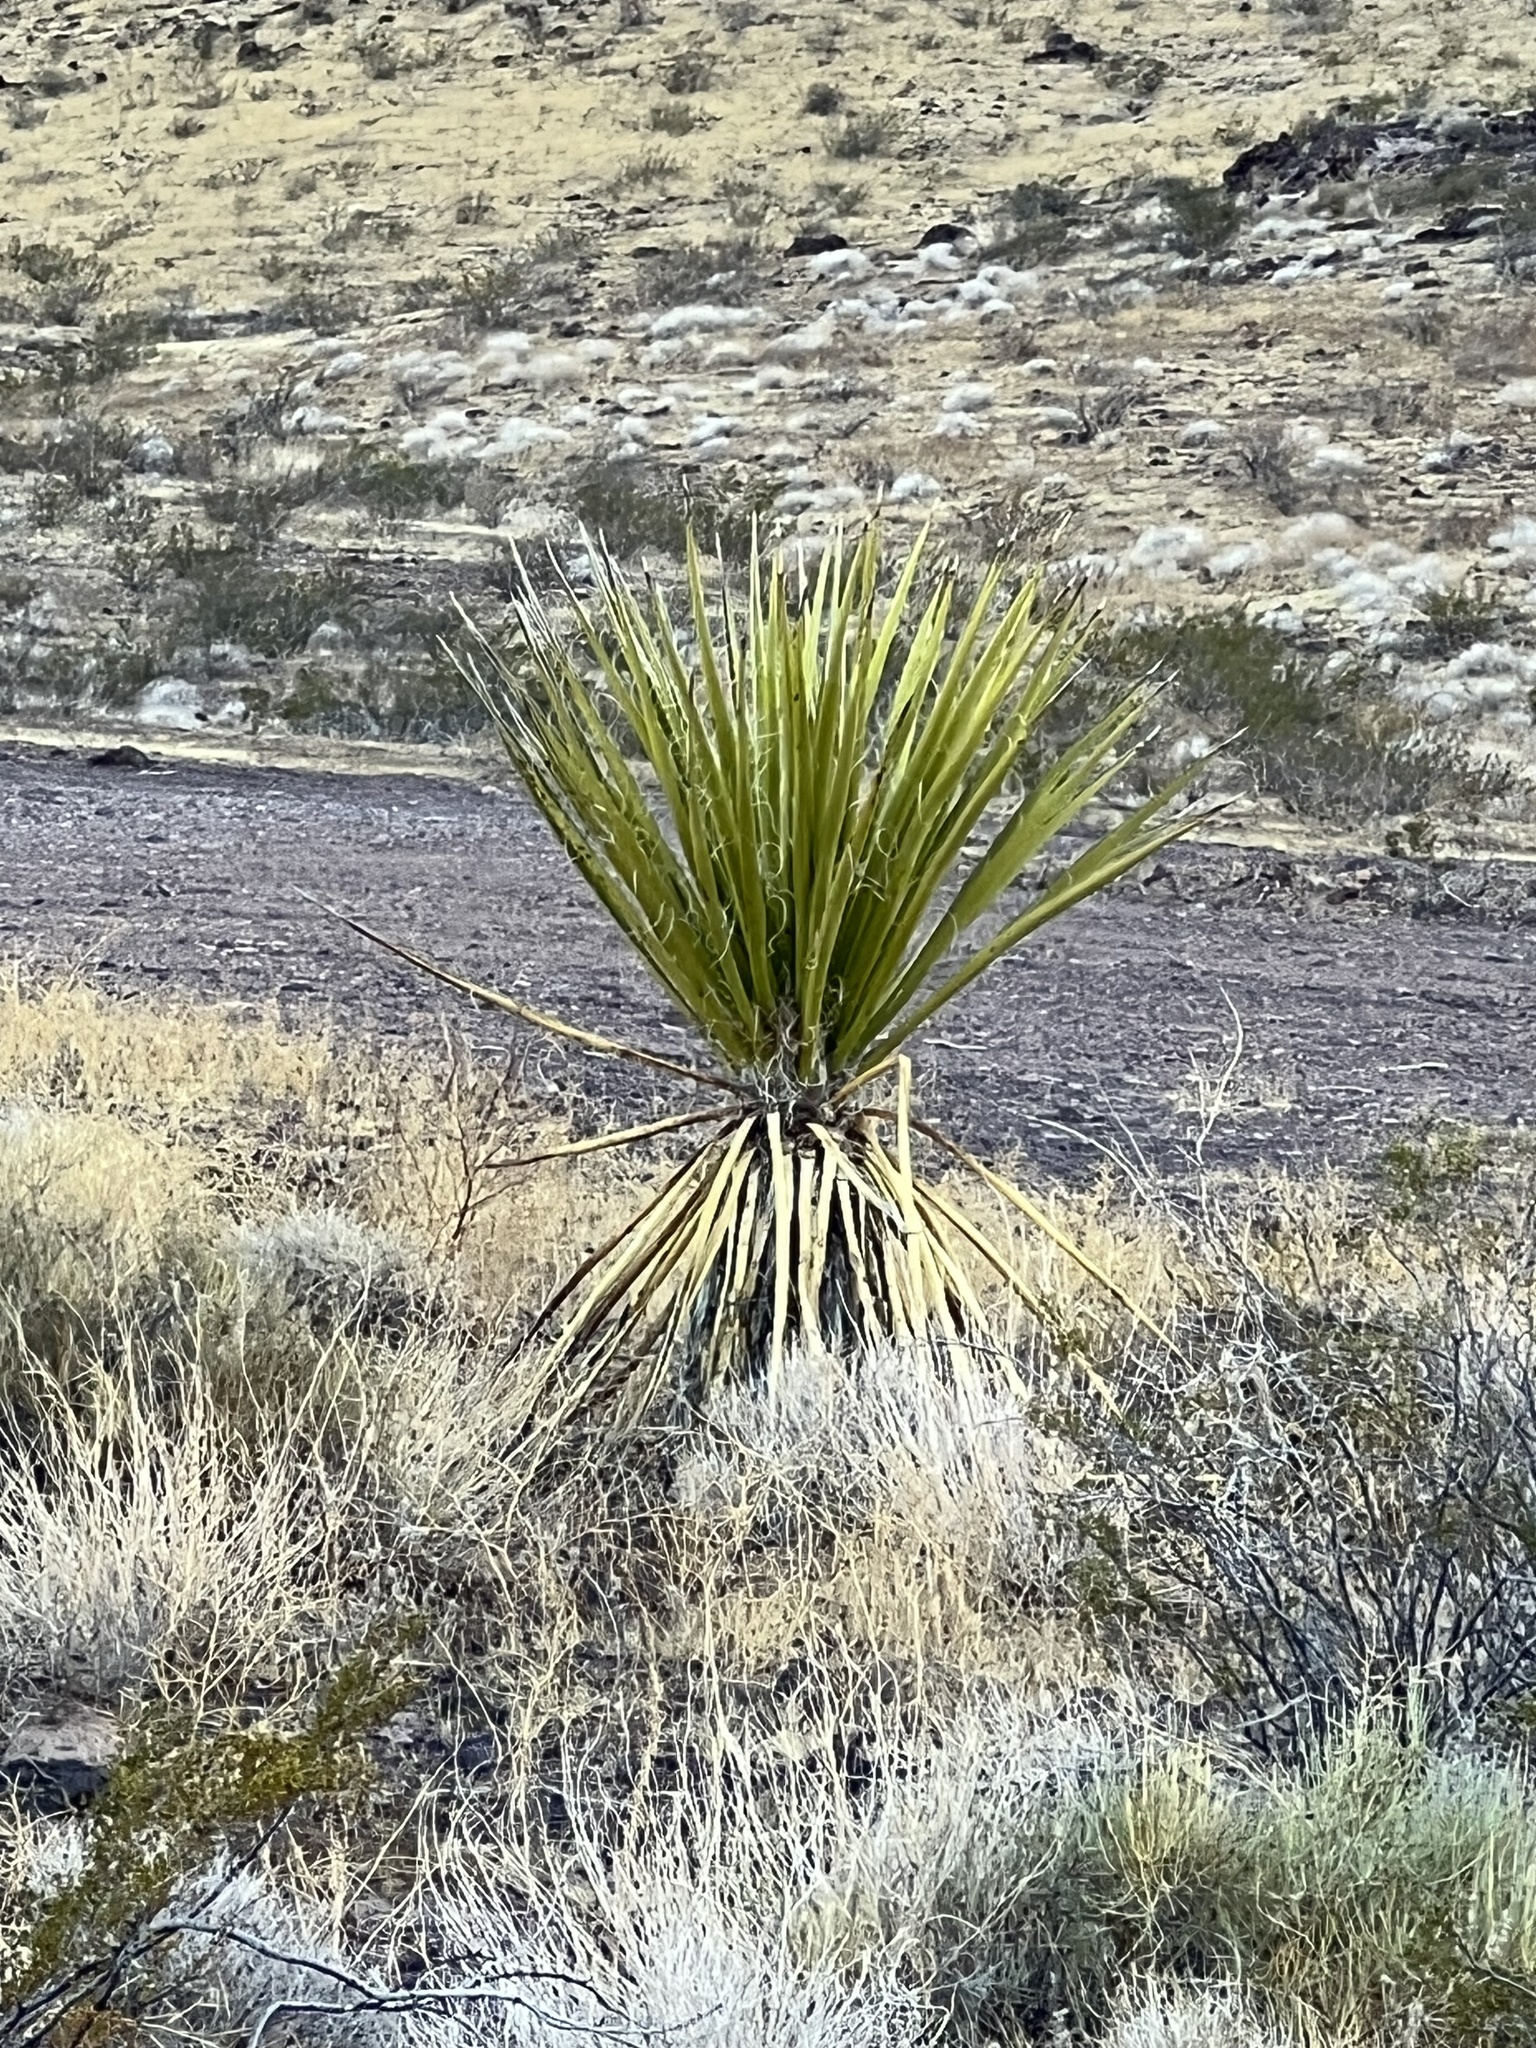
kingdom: Plantae
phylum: Tracheophyta
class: Liliopsida
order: Asparagales
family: Asparagaceae
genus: Yucca
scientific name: Yucca schidigera
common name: Mojave yucca
